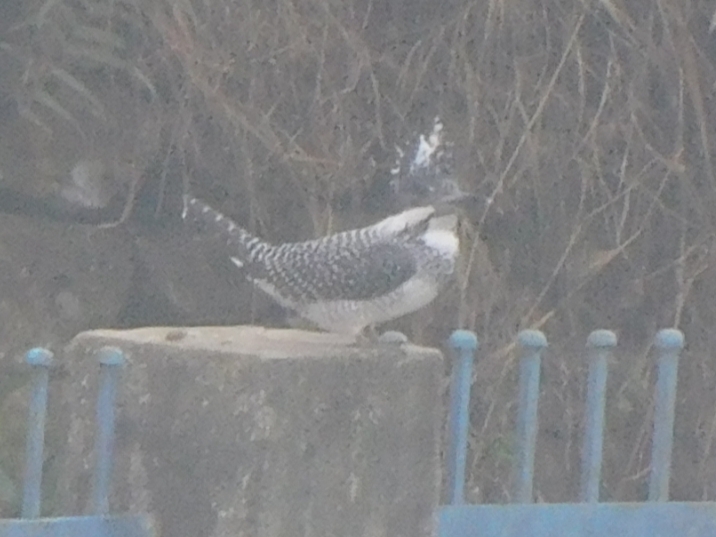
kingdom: Animalia
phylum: Chordata
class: Aves
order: Coraciiformes
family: Alcedinidae
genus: Megaceryle
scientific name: Megaceryle lugubris
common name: Crested kingfisher
